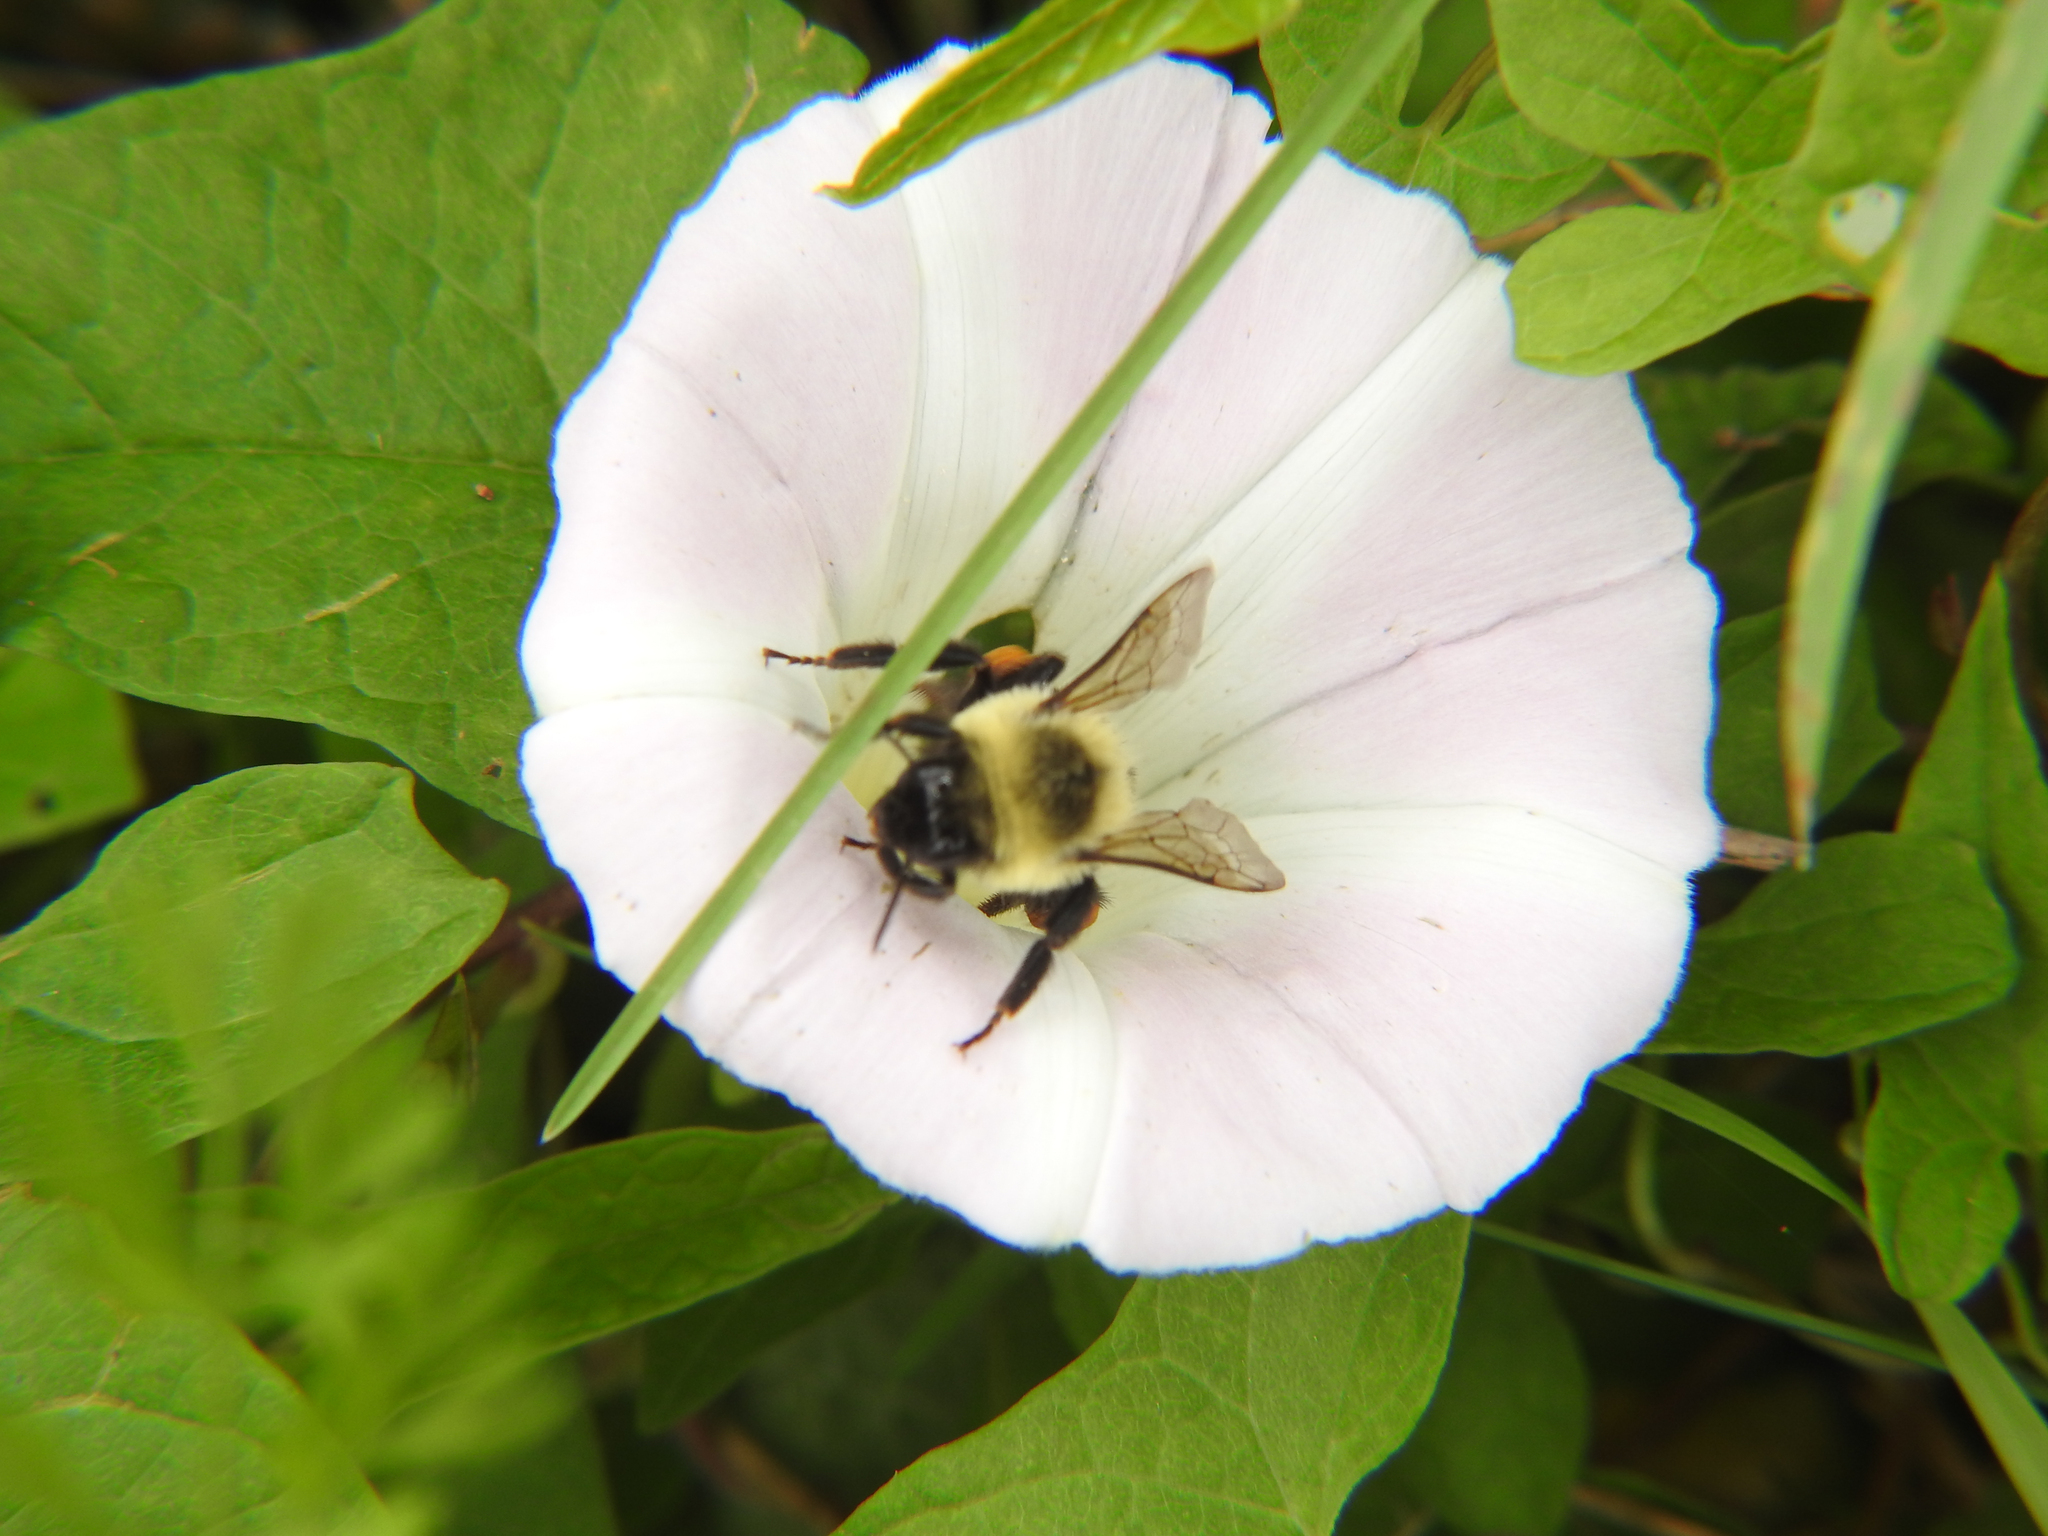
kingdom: Animalia
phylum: Arthropoda
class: Insecta
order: Hymenoptera
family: Apidae
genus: Bombus
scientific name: Bombus impatiens
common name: Common eastern bumble bee
